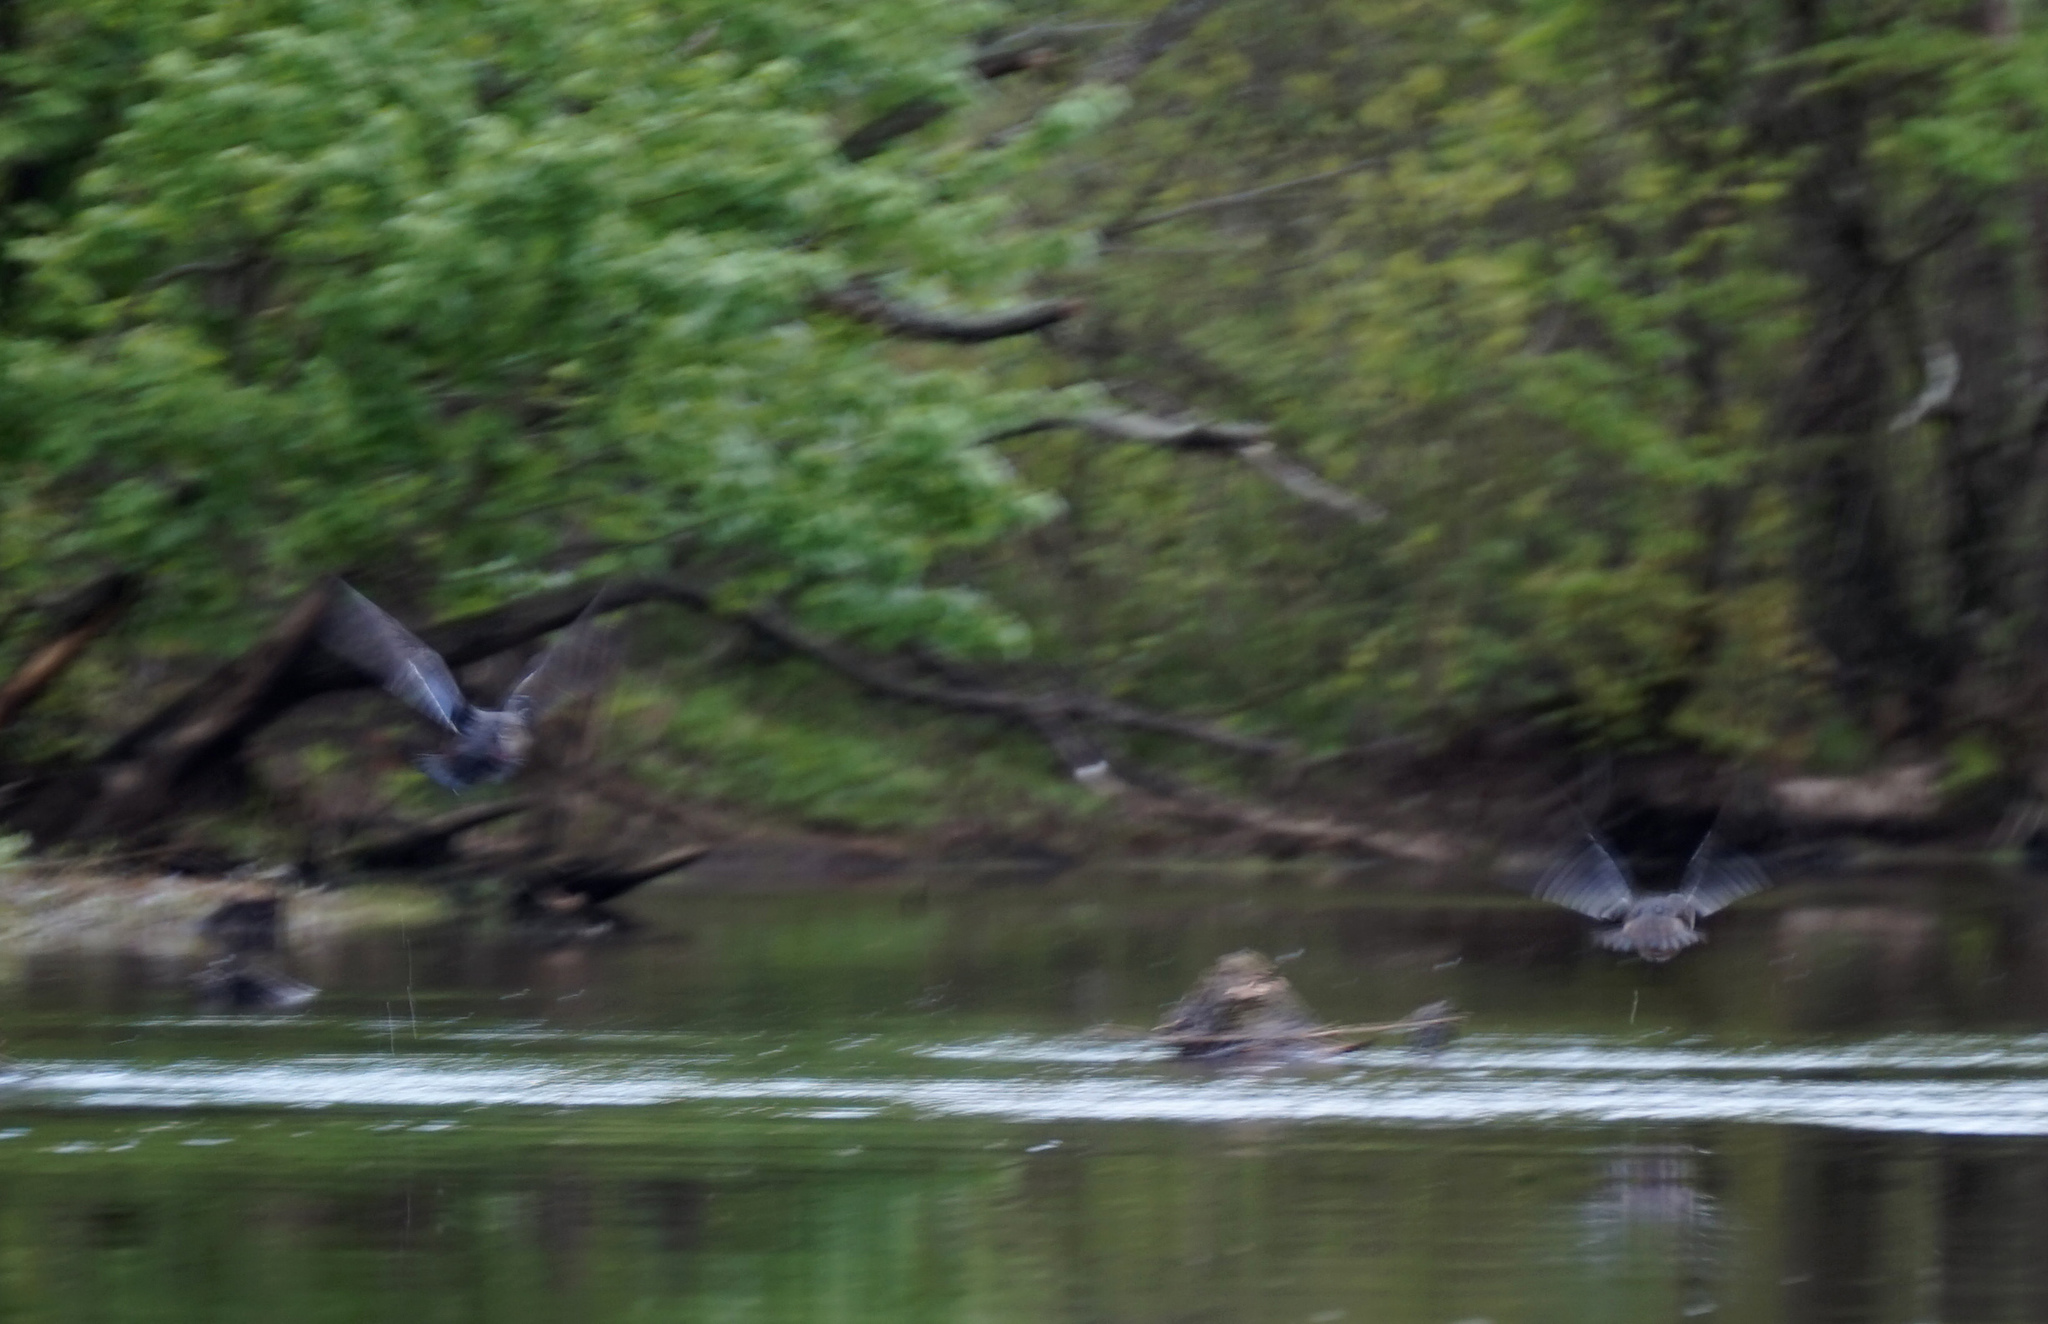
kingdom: Animalia
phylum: Chordata
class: Aves
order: Anseriformes
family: Anatidae
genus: Aix
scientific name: Aix sponsa
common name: Wood duck
